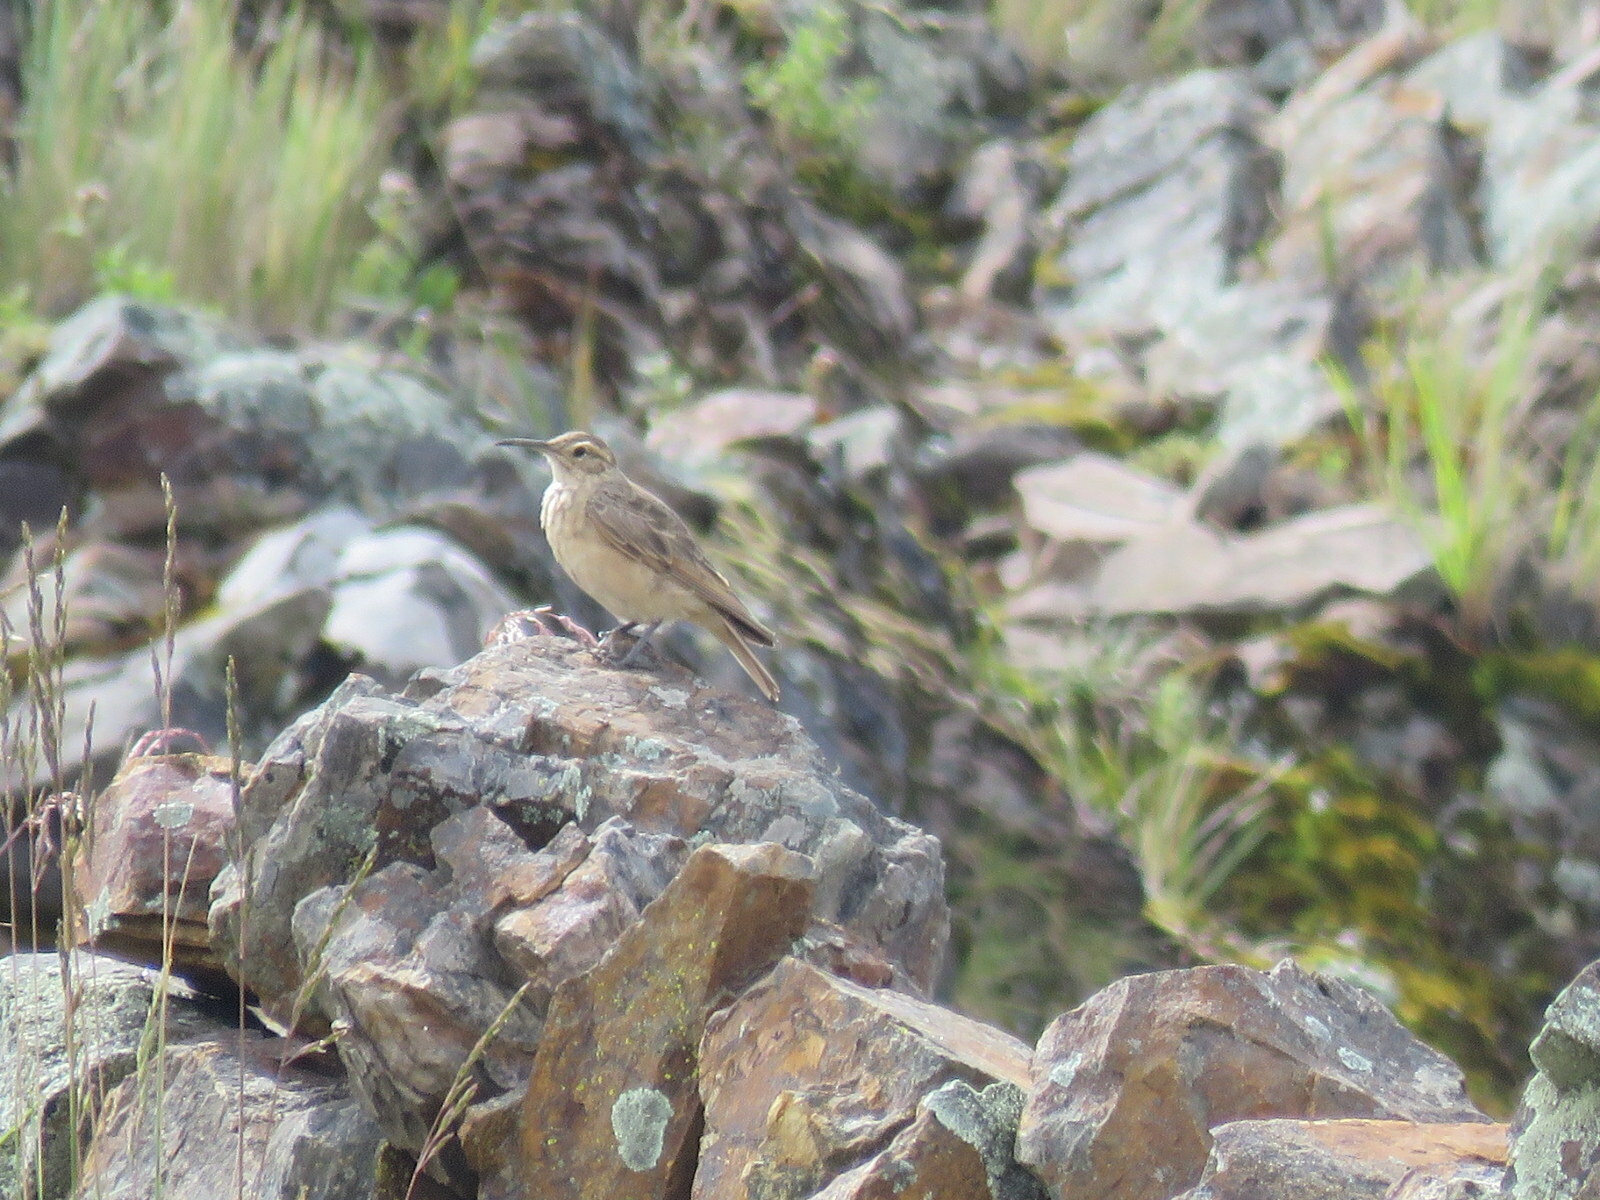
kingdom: Animalia
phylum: Chordata
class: Aves
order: Passeriformes
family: Furnariidae
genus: Geositta
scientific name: Geositta tenuirostris
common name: Slender-billed miner
